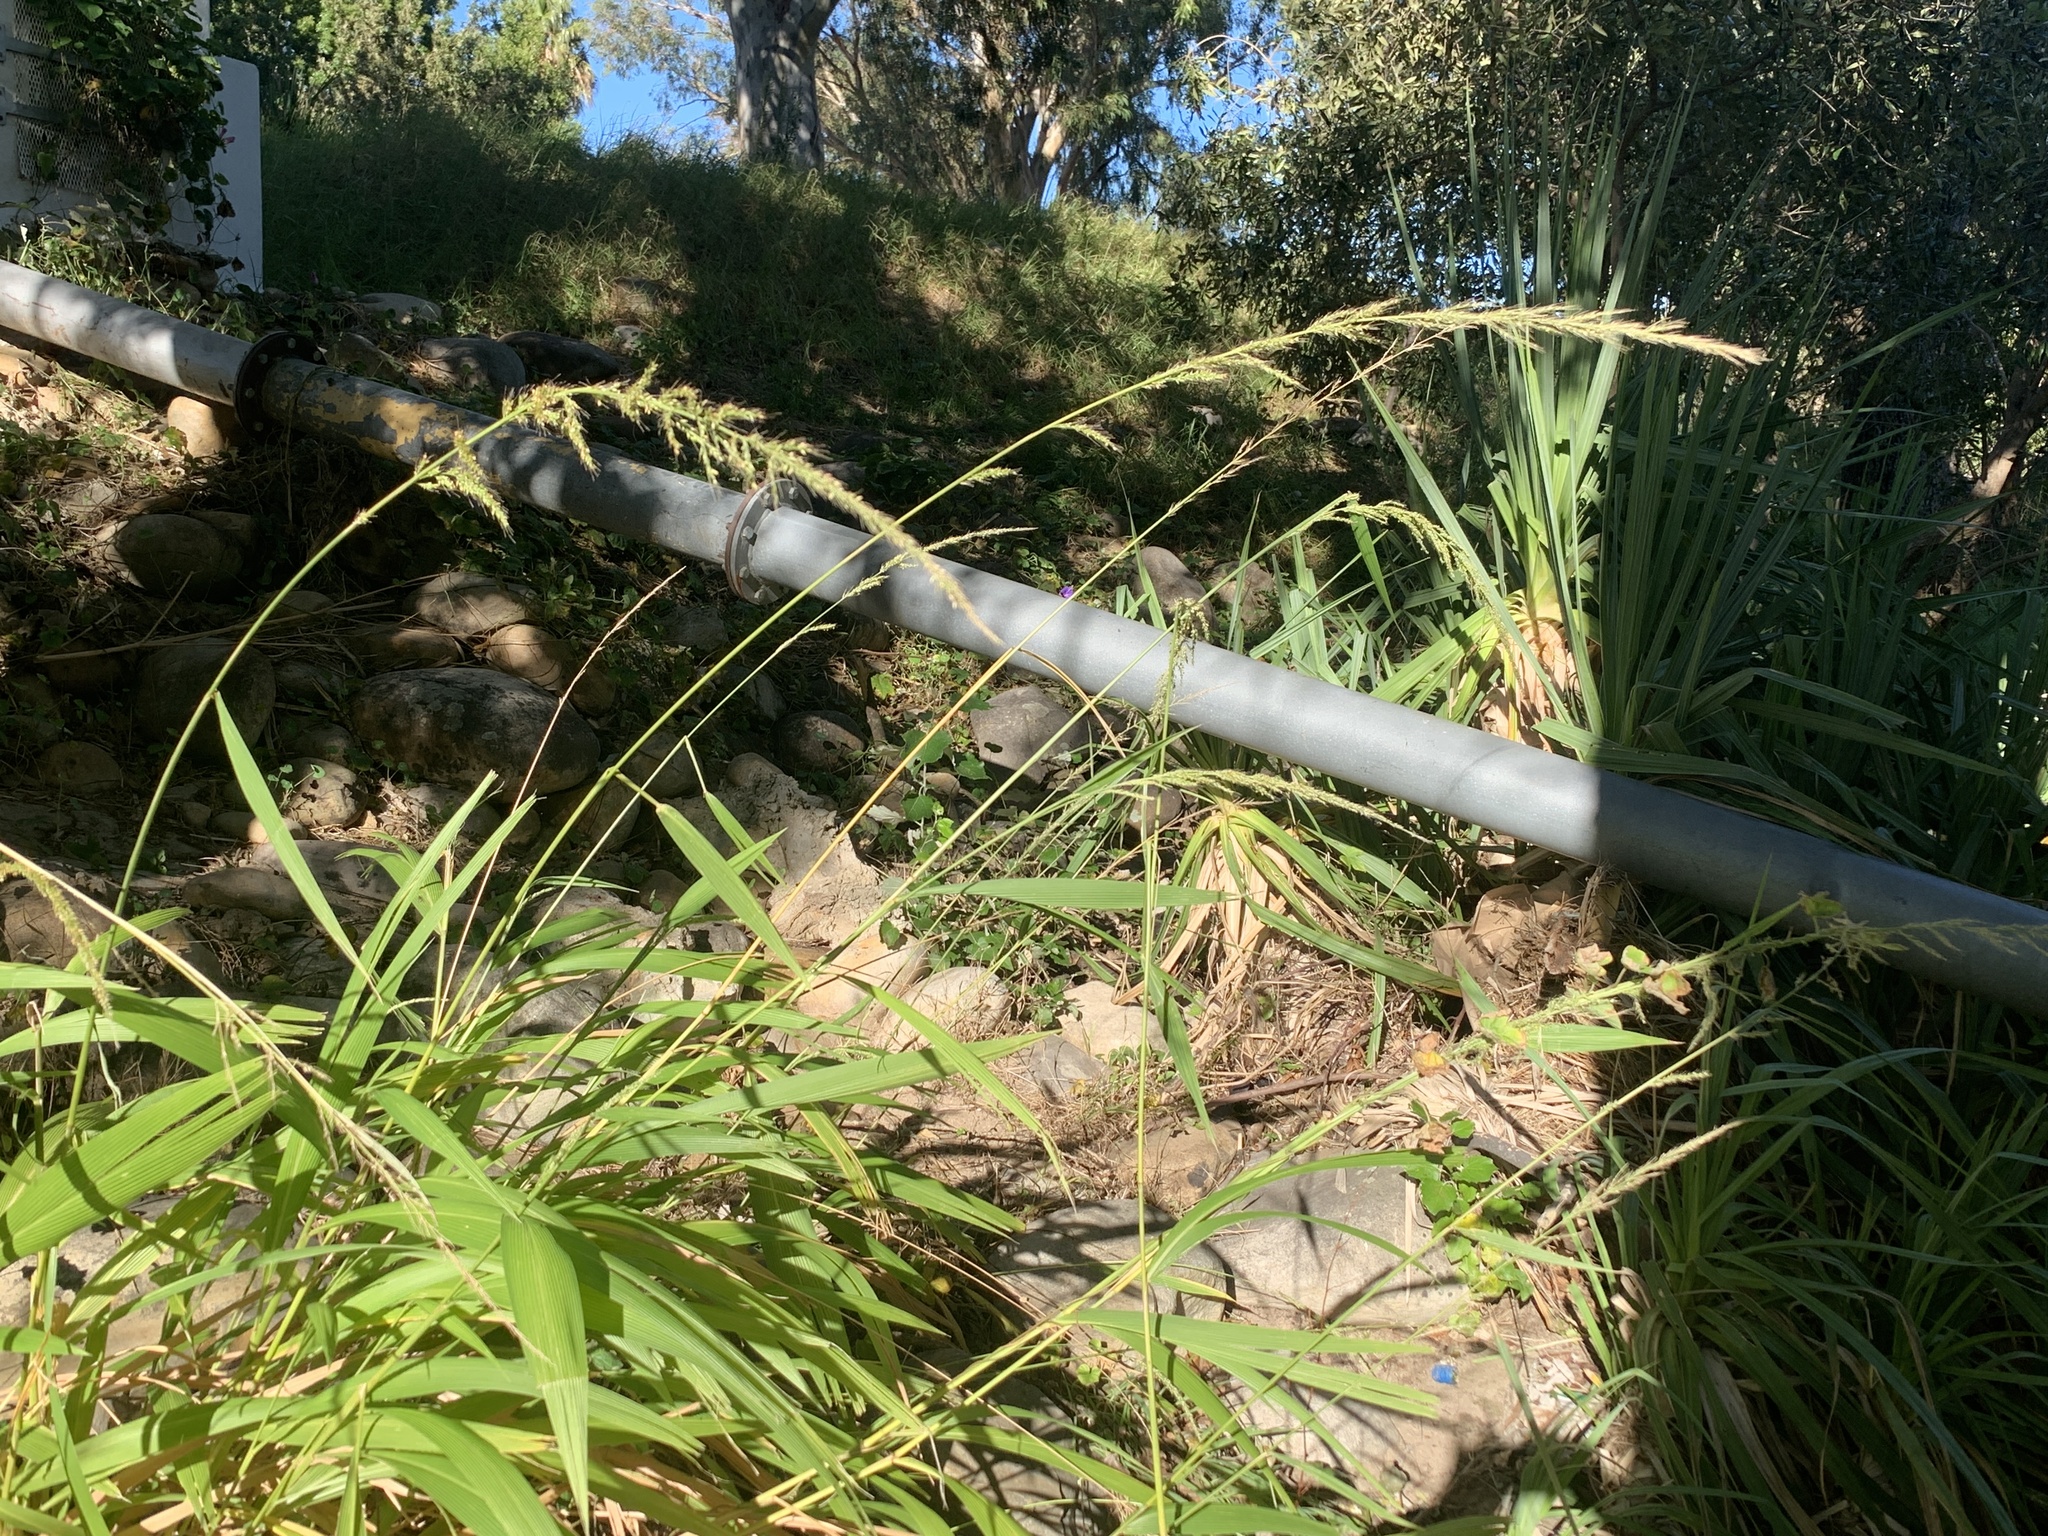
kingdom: Plantae
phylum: Tracheophyta
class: Liliopsida
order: Poales
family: Poaceae
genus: Setaria
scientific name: Setaria megaphylla
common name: Bigleaf bristlegrass
